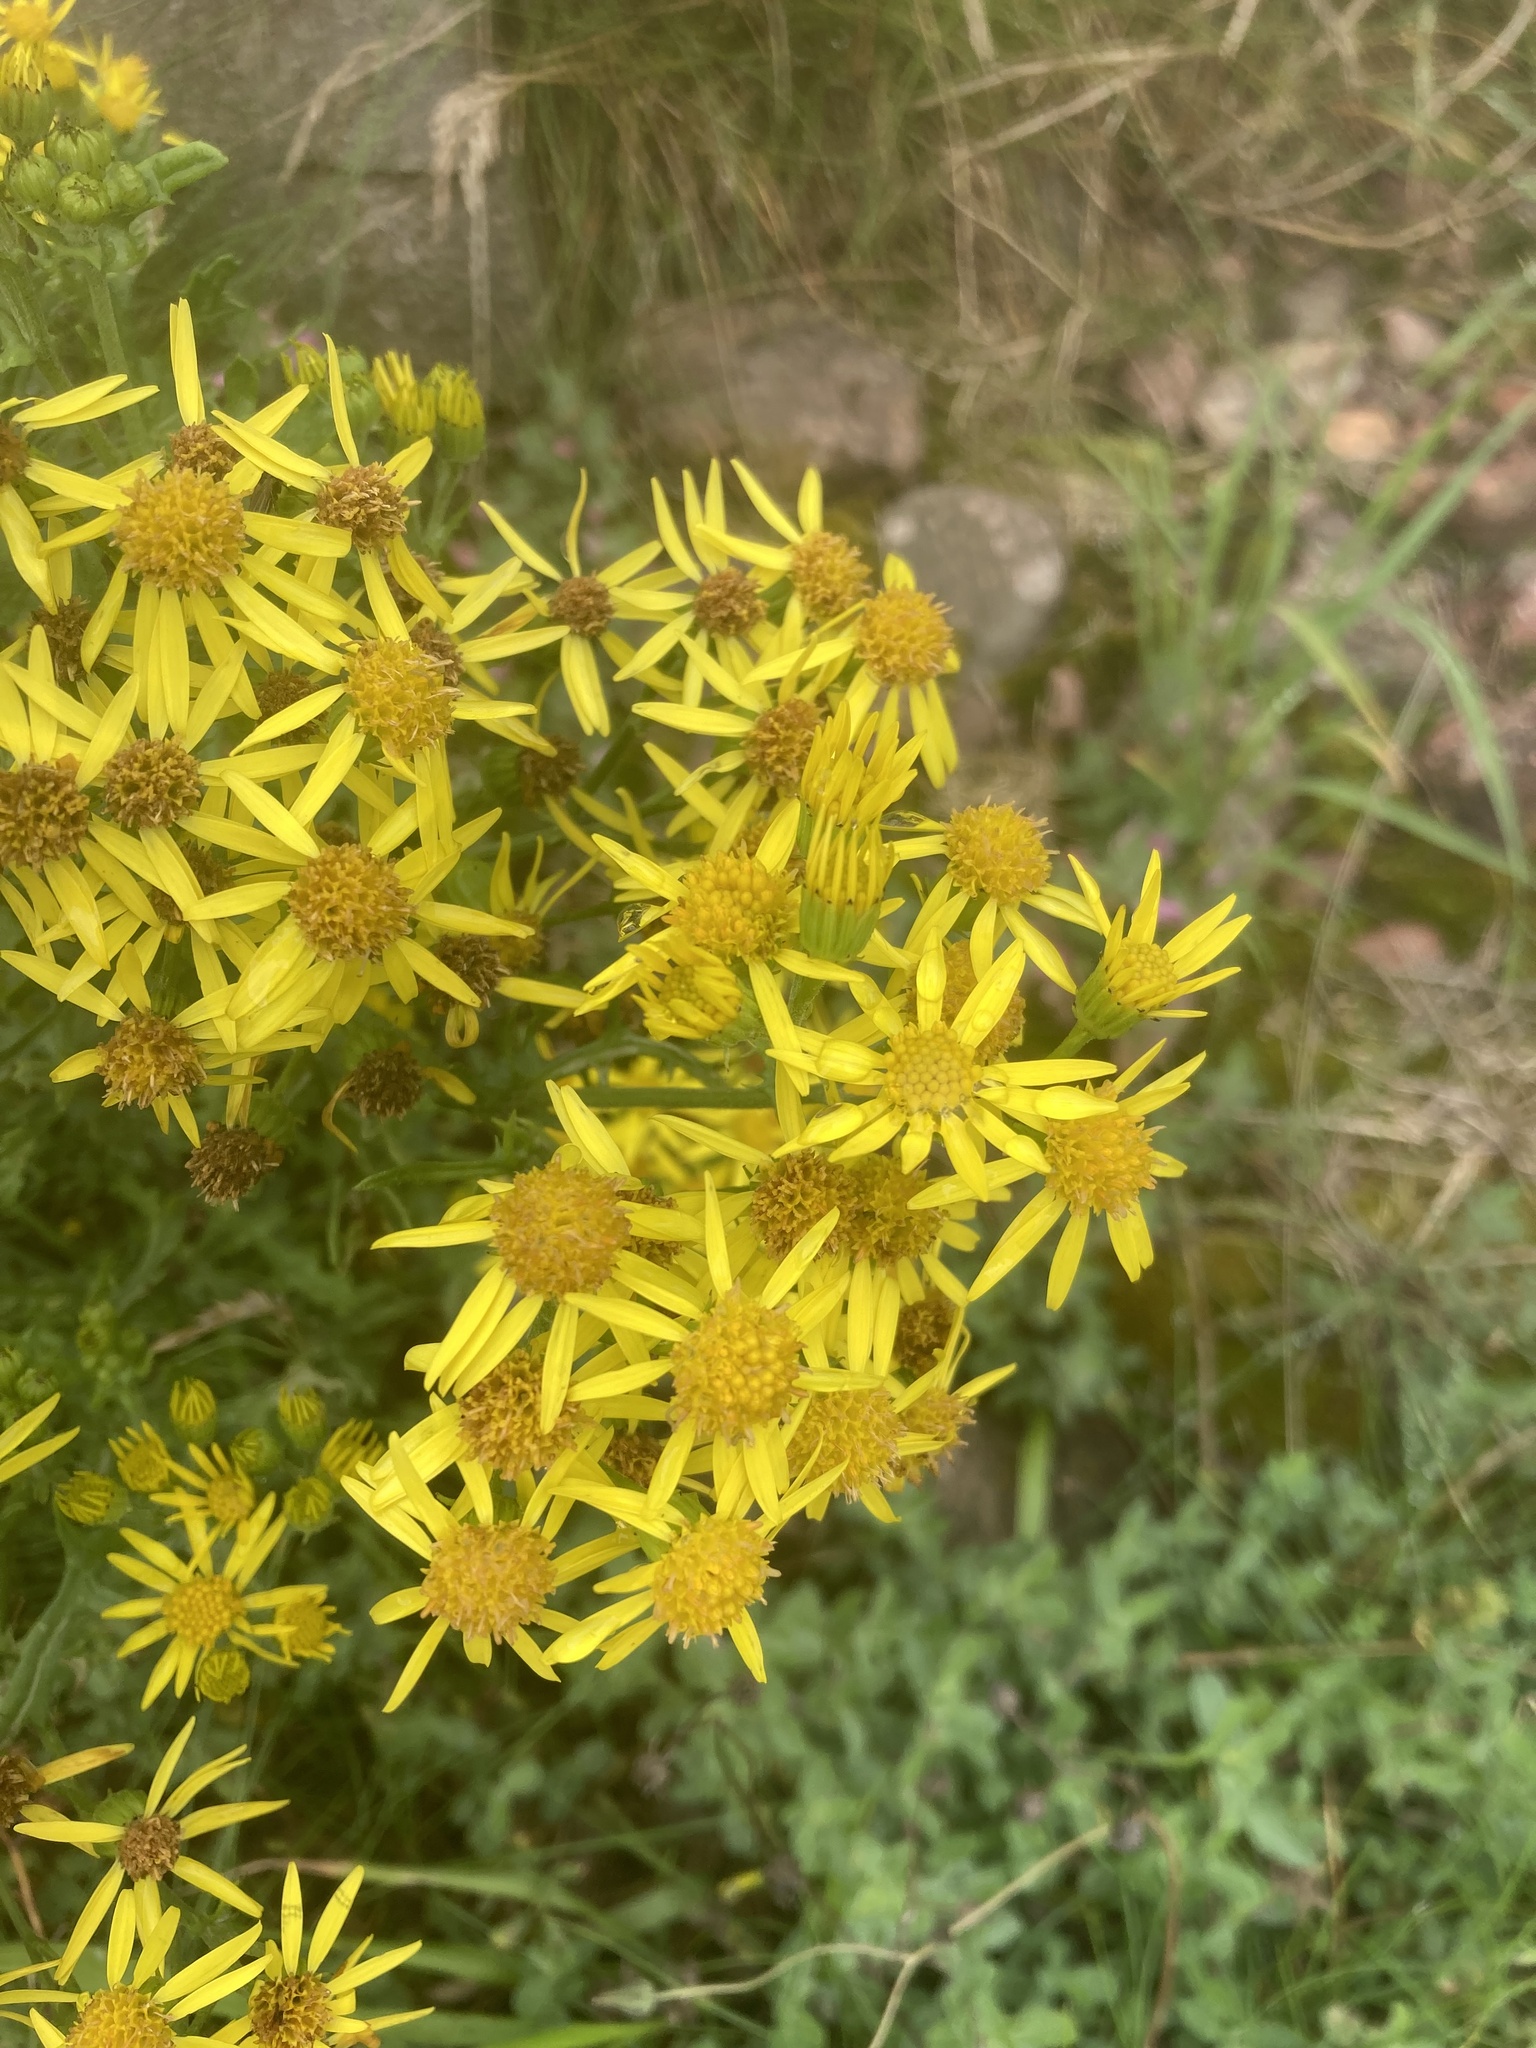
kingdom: Plantae
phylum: Tracheophyta
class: Magnoliopsida
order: Asterales
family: Asteraceae
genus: Jacobaea
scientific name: Jacobaea vulgaris
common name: Stinking willie
